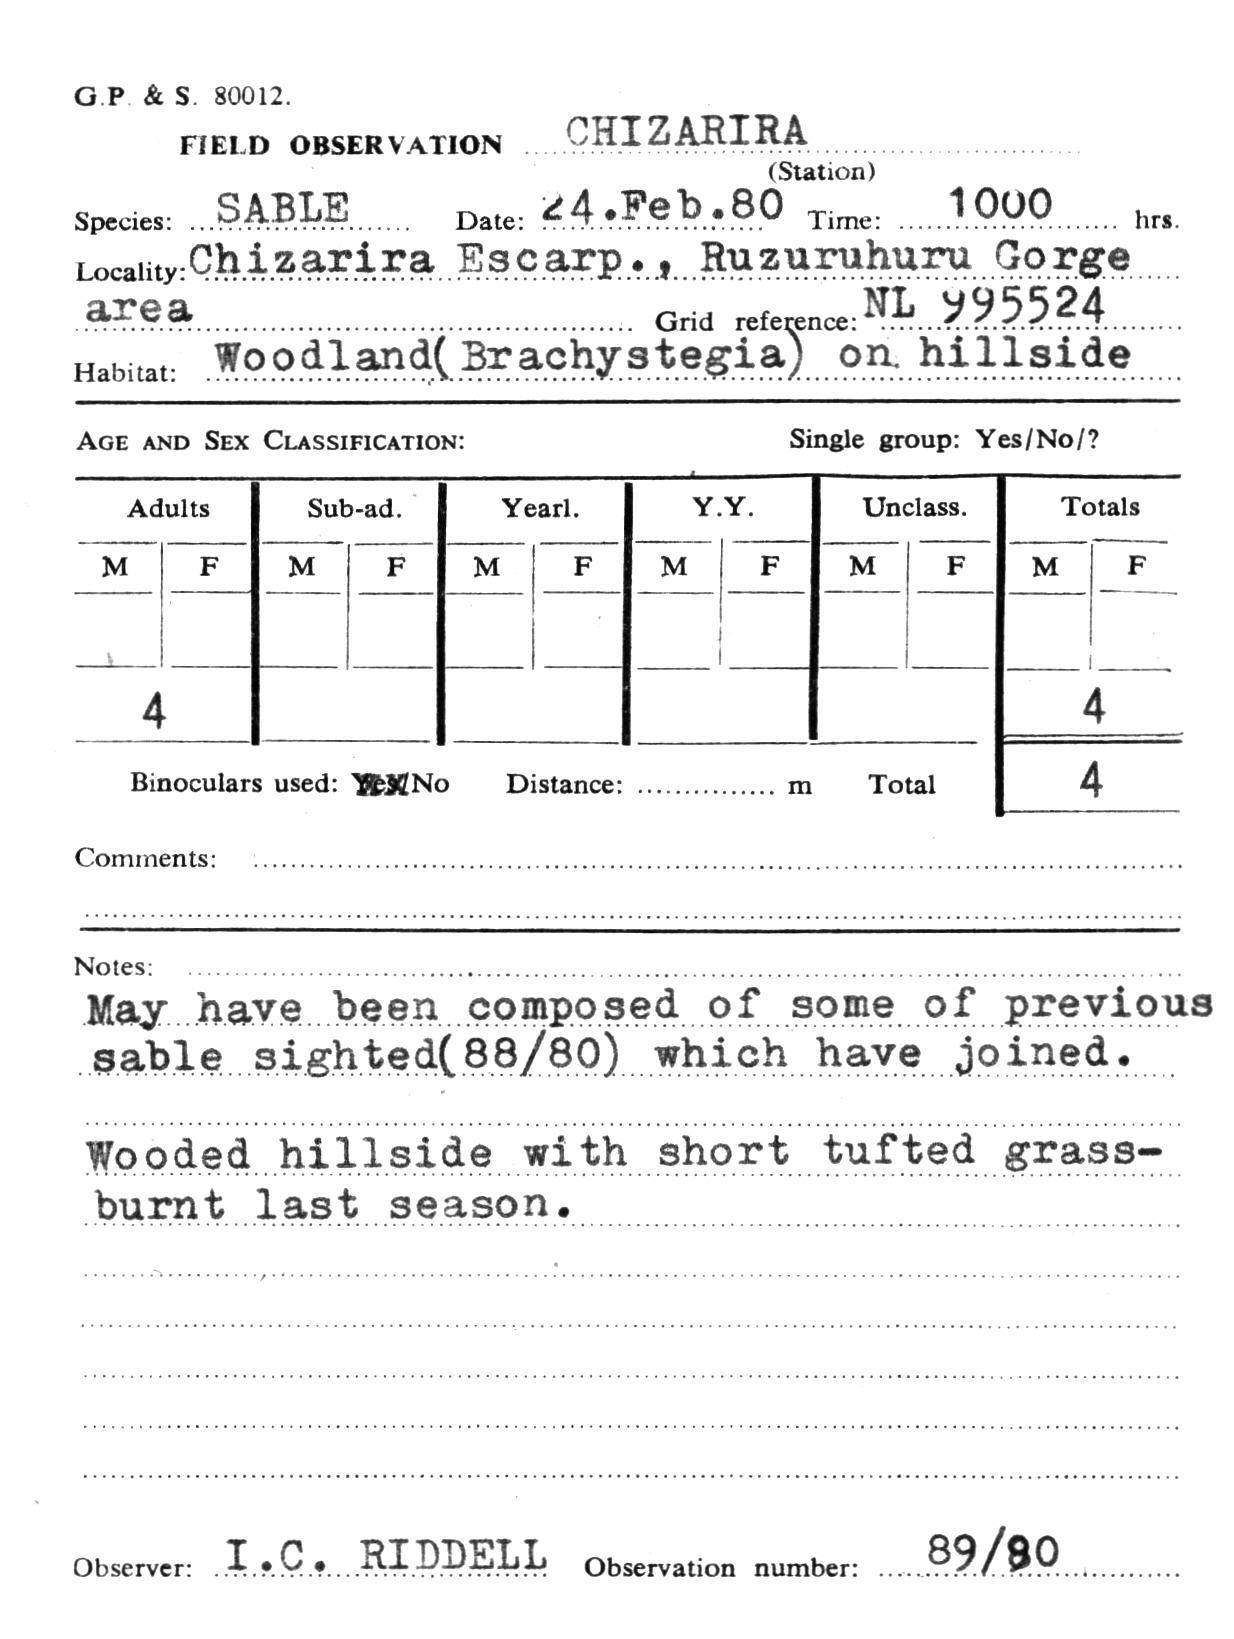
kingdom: Animalia
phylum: Chordata
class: Mammalia
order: Artiodactyla
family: Bovidae
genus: Hippotragus
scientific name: Hippotragus niger
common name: Sable antelope
